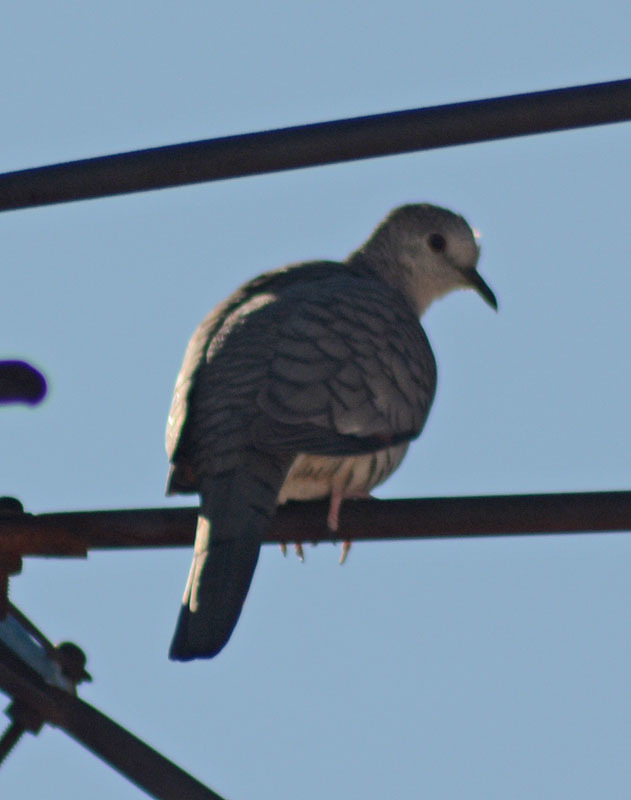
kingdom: Animalia
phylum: Chordata
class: Aves
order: Columbiformes
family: Columbidae
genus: Columbina
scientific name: Columbina inca
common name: Inca dove
